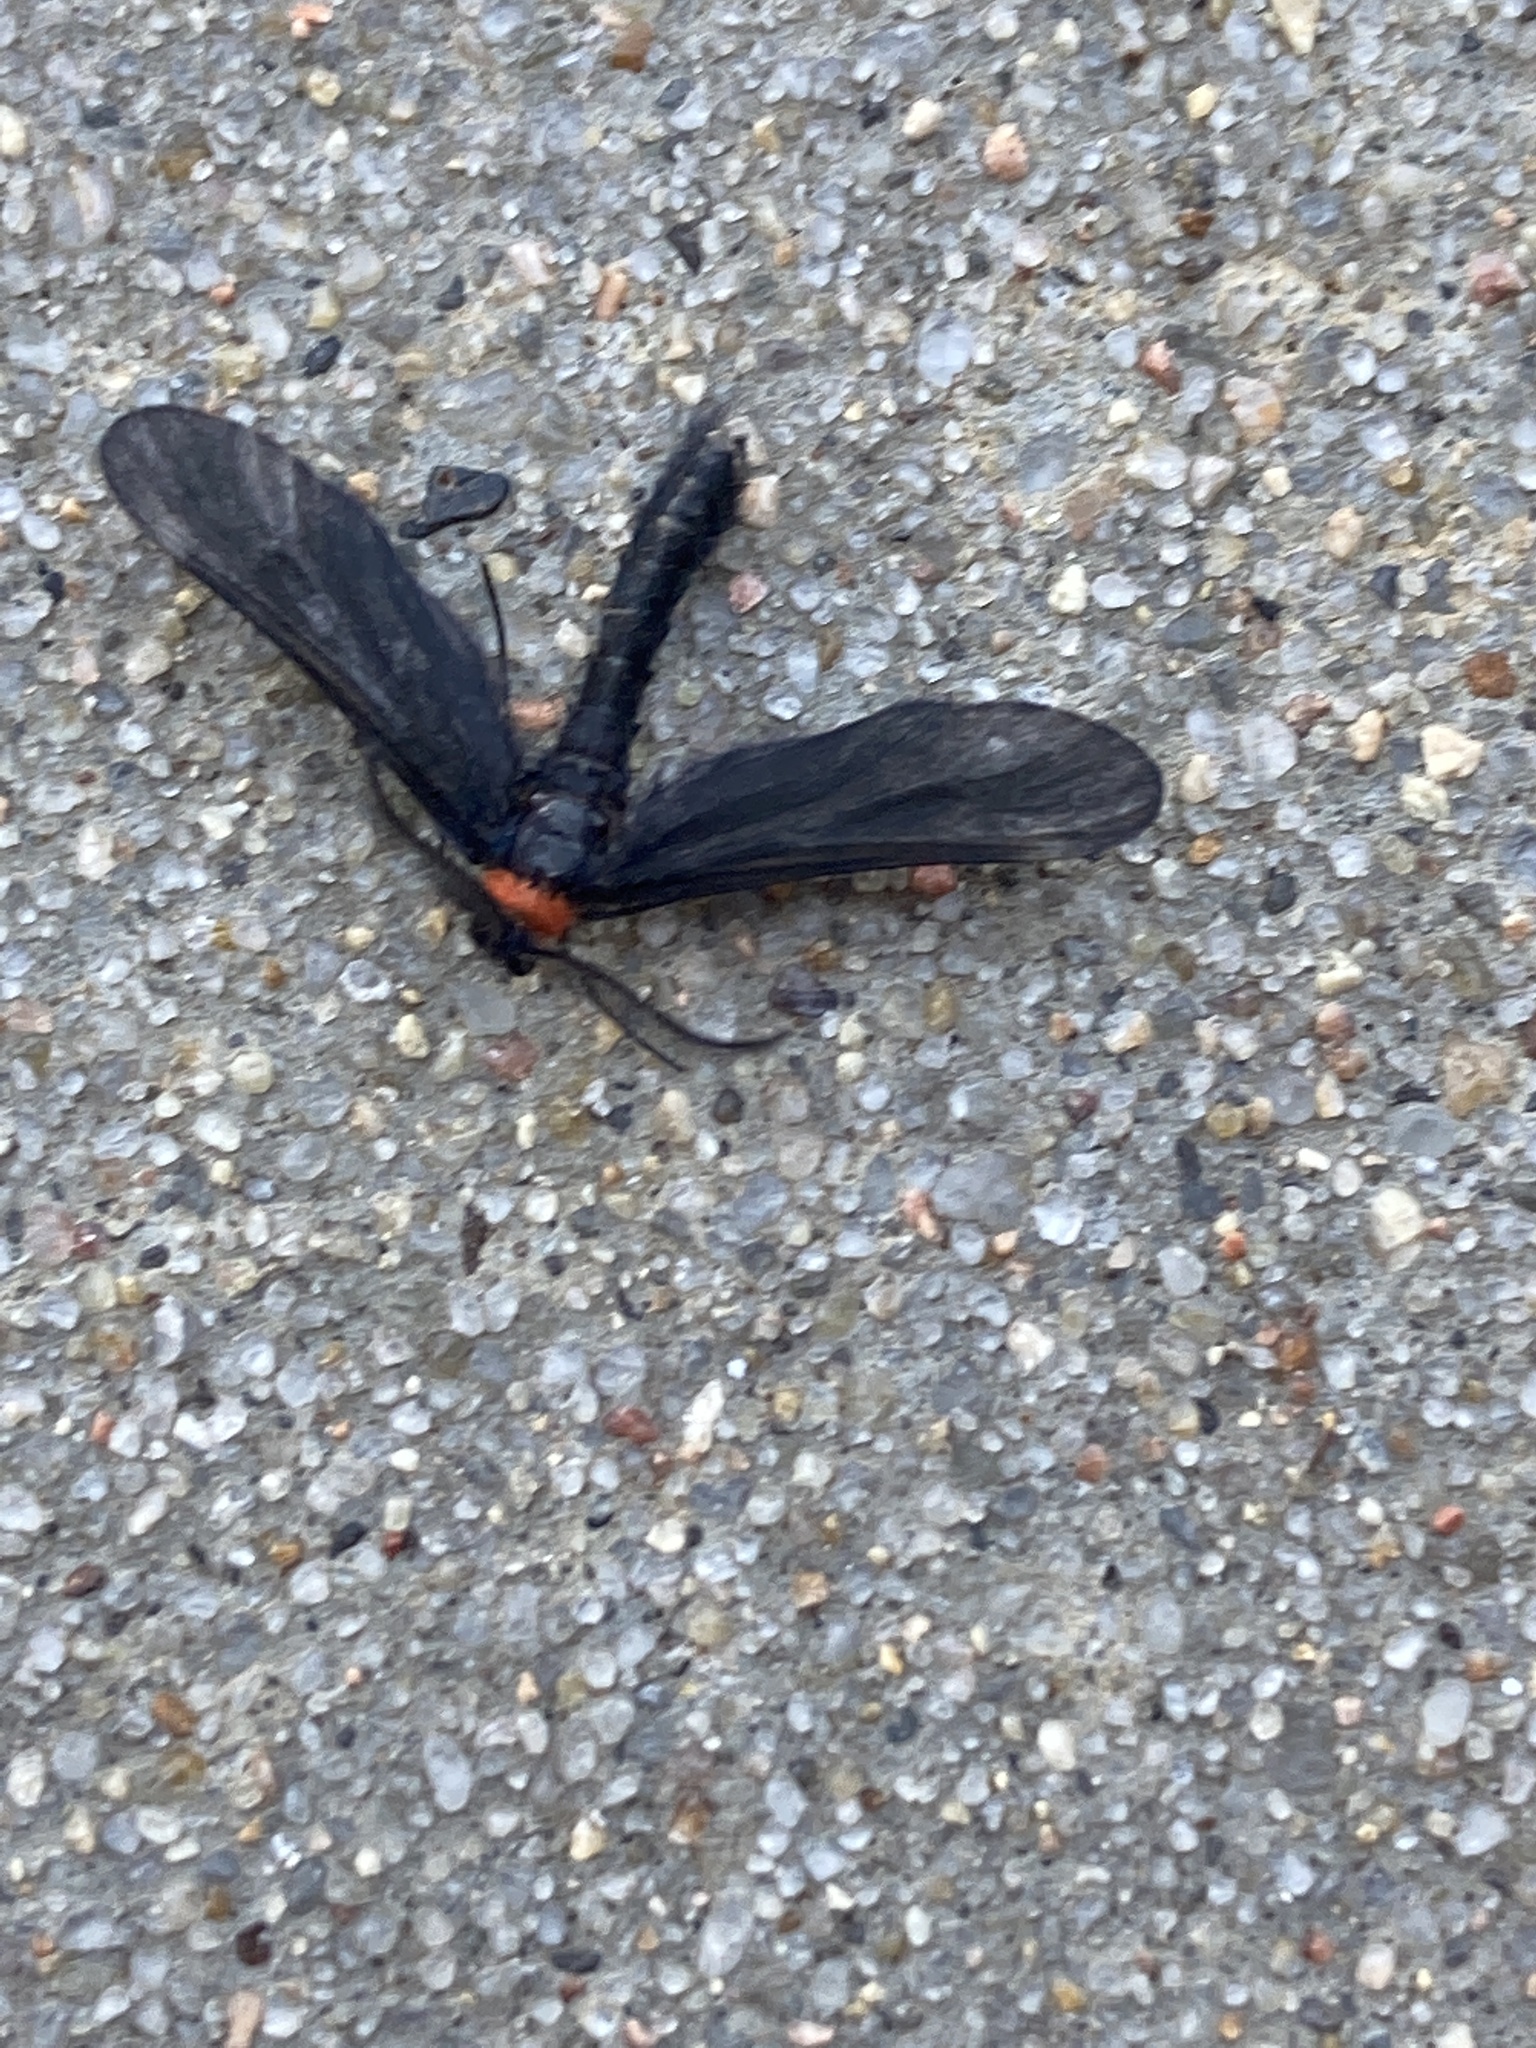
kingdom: Animalia
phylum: Arthropoda
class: Insecta
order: Lepidoptera
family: Zygaenidae
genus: Harrisina
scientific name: Harrisina americana
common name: Grapeleaf skeletonizer moth
